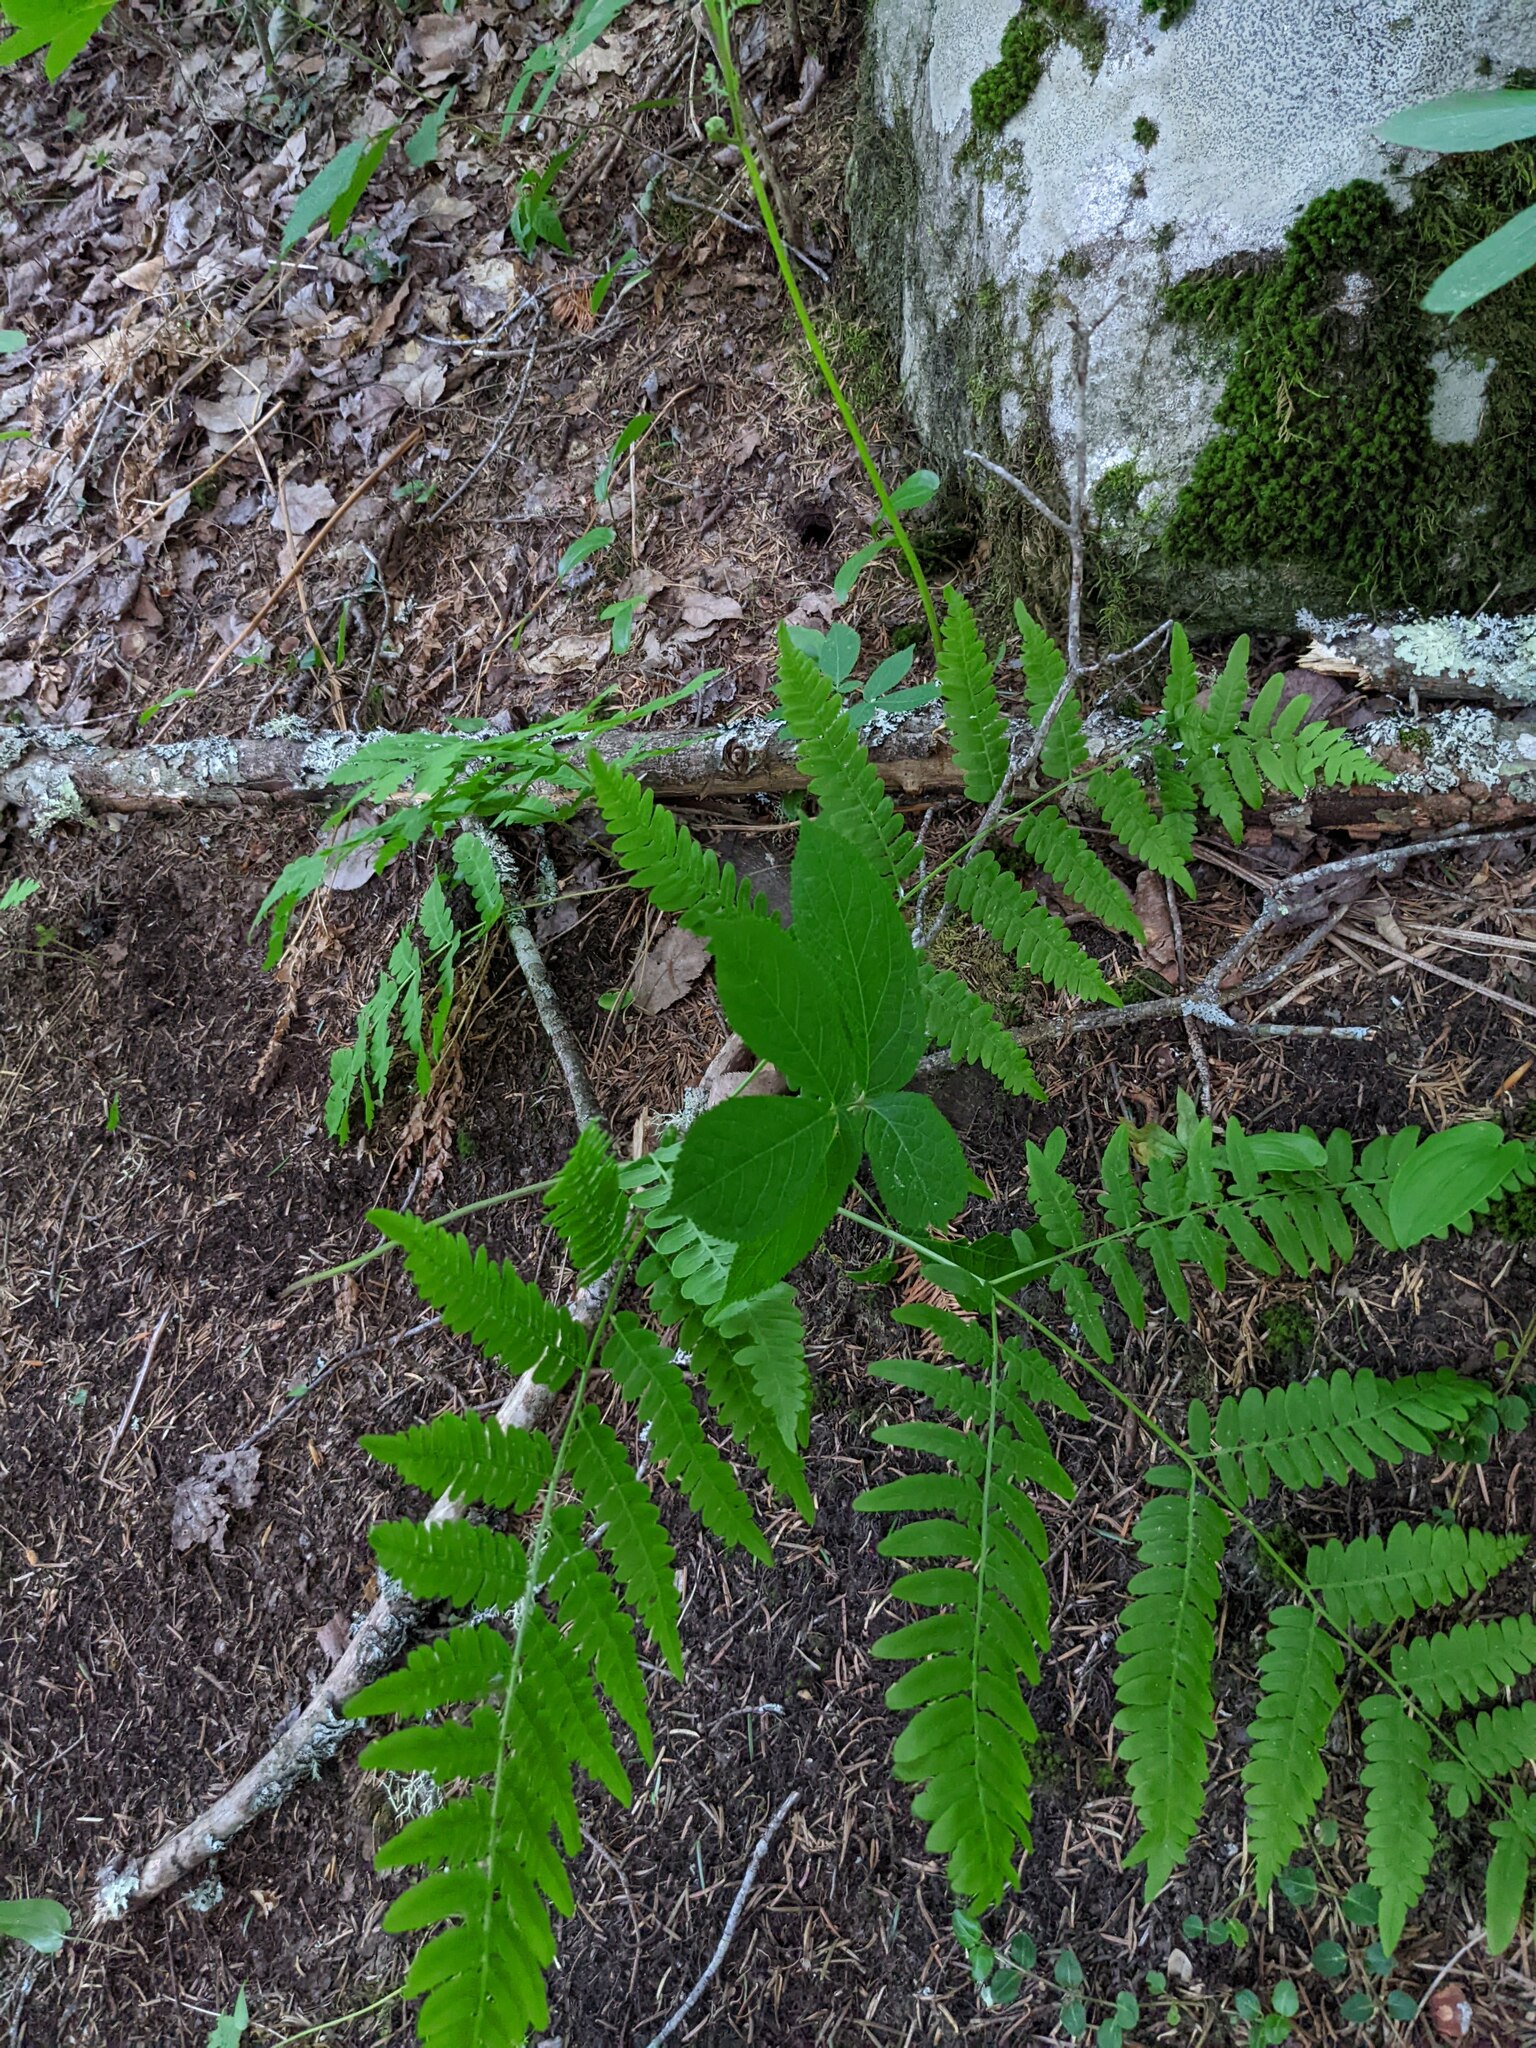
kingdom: Plantae
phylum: Tracheophyta
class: Polypodiopsida
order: Polypodiales
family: Dennstaedtiaceae
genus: Pteridium
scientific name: Pteridium aquilinum
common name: Bracken
